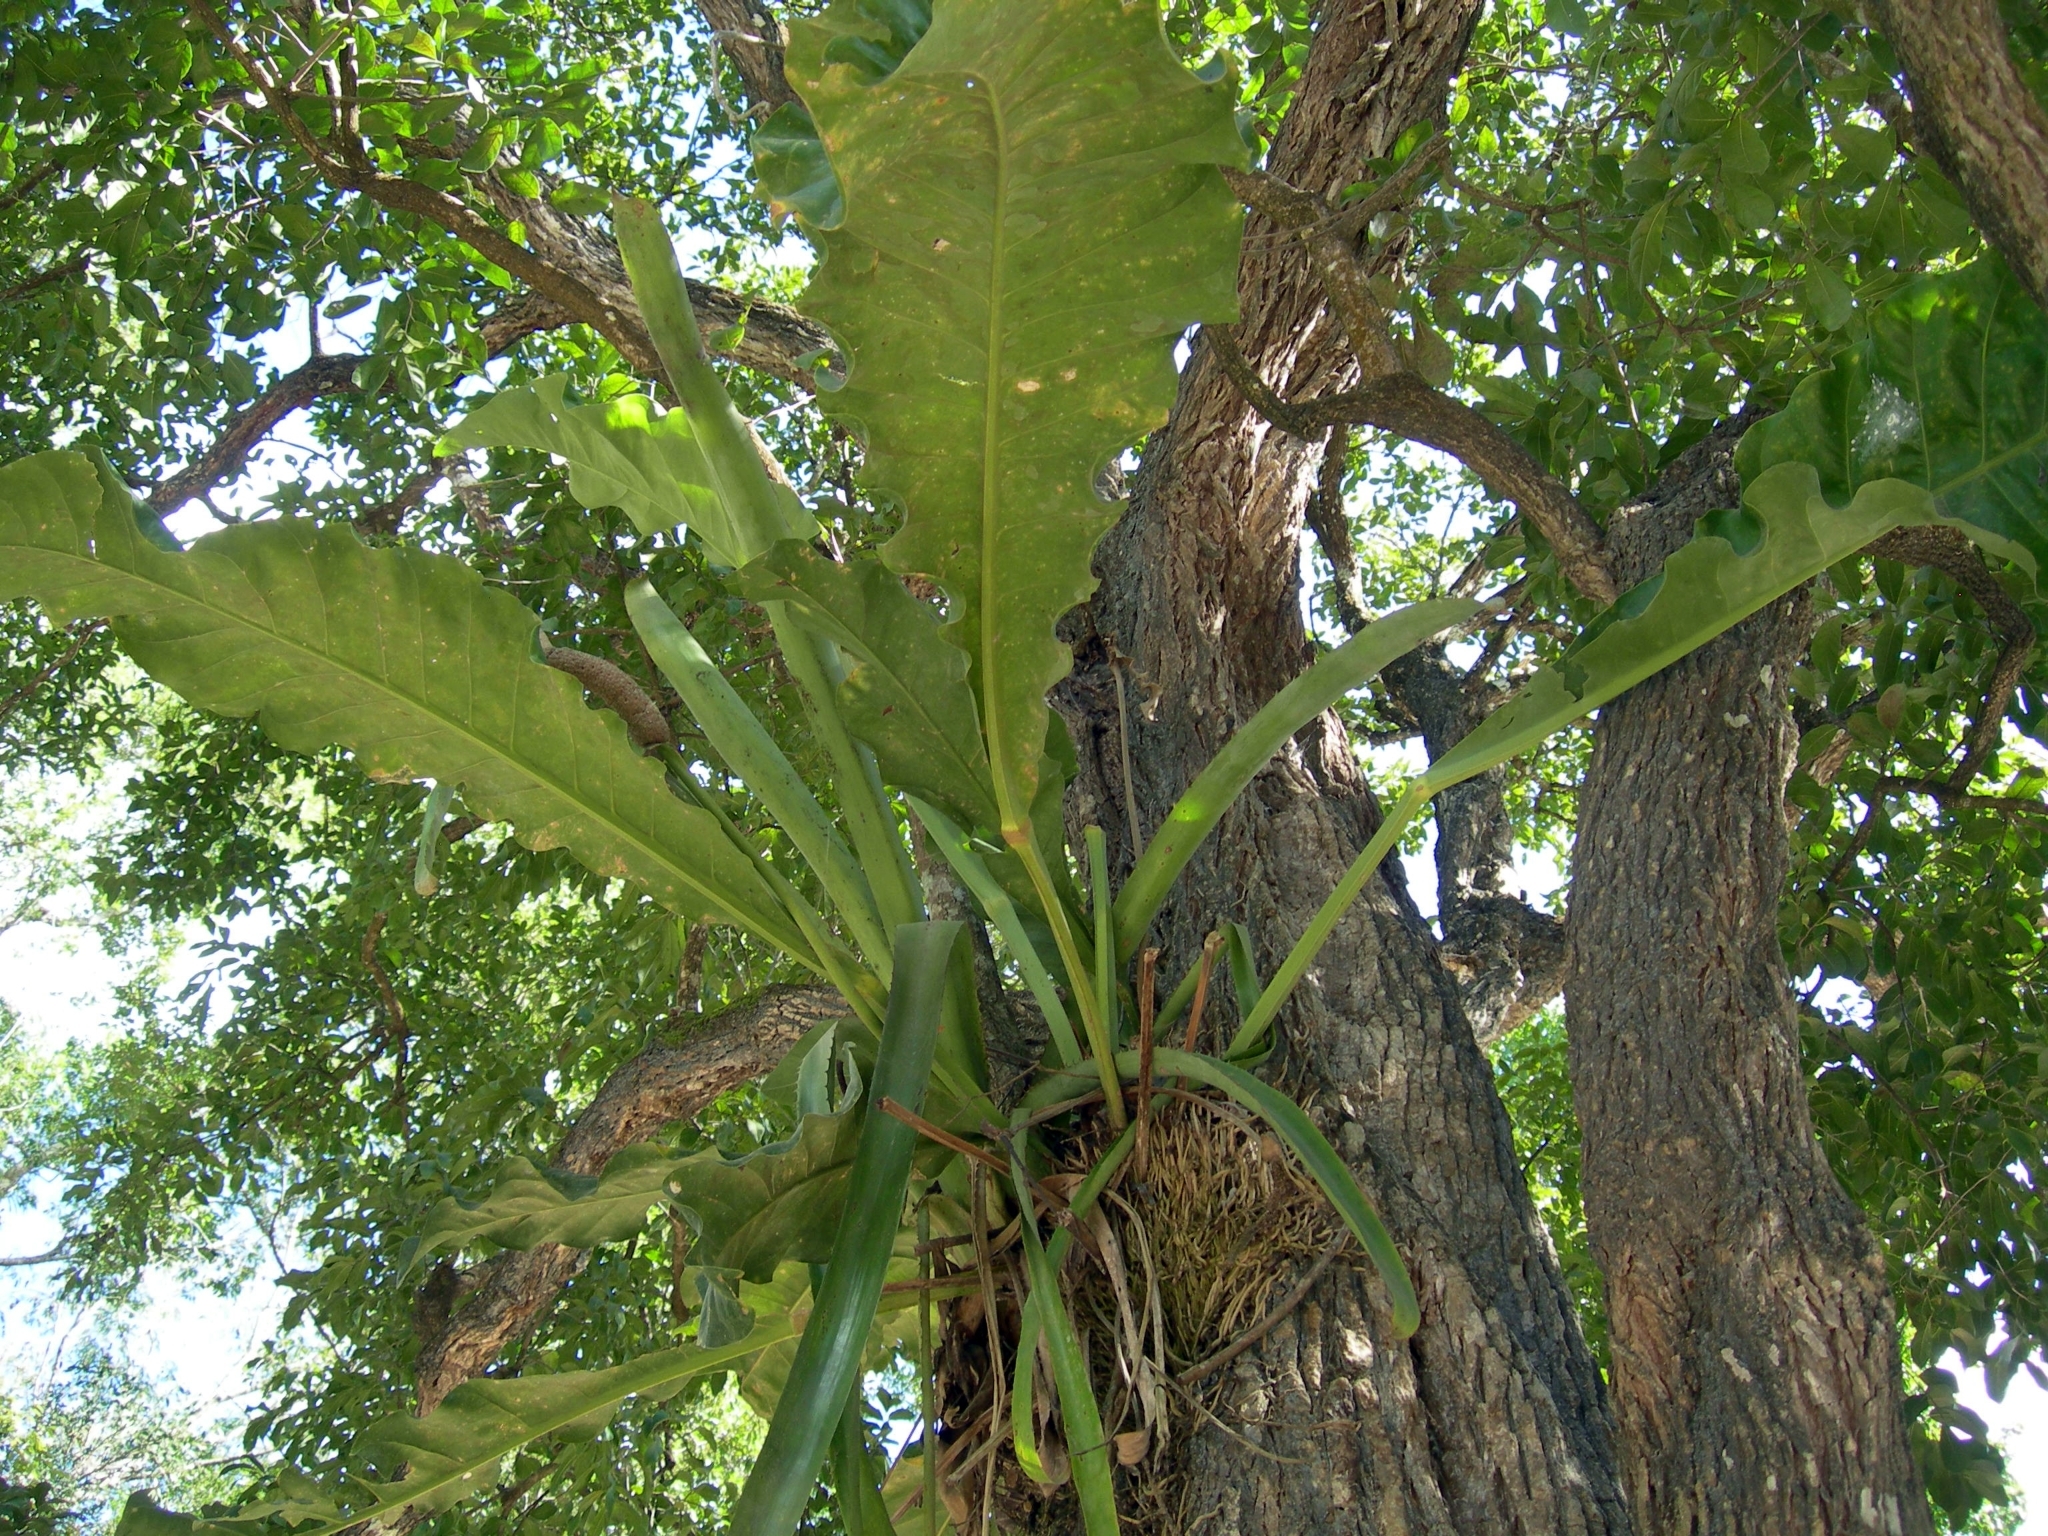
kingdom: Plantae
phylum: Tracheophyta
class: Liliopsida
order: Alismatales
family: Araceae
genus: Anthurium
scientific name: Anthurium schlechtendalii
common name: Laceleaf
